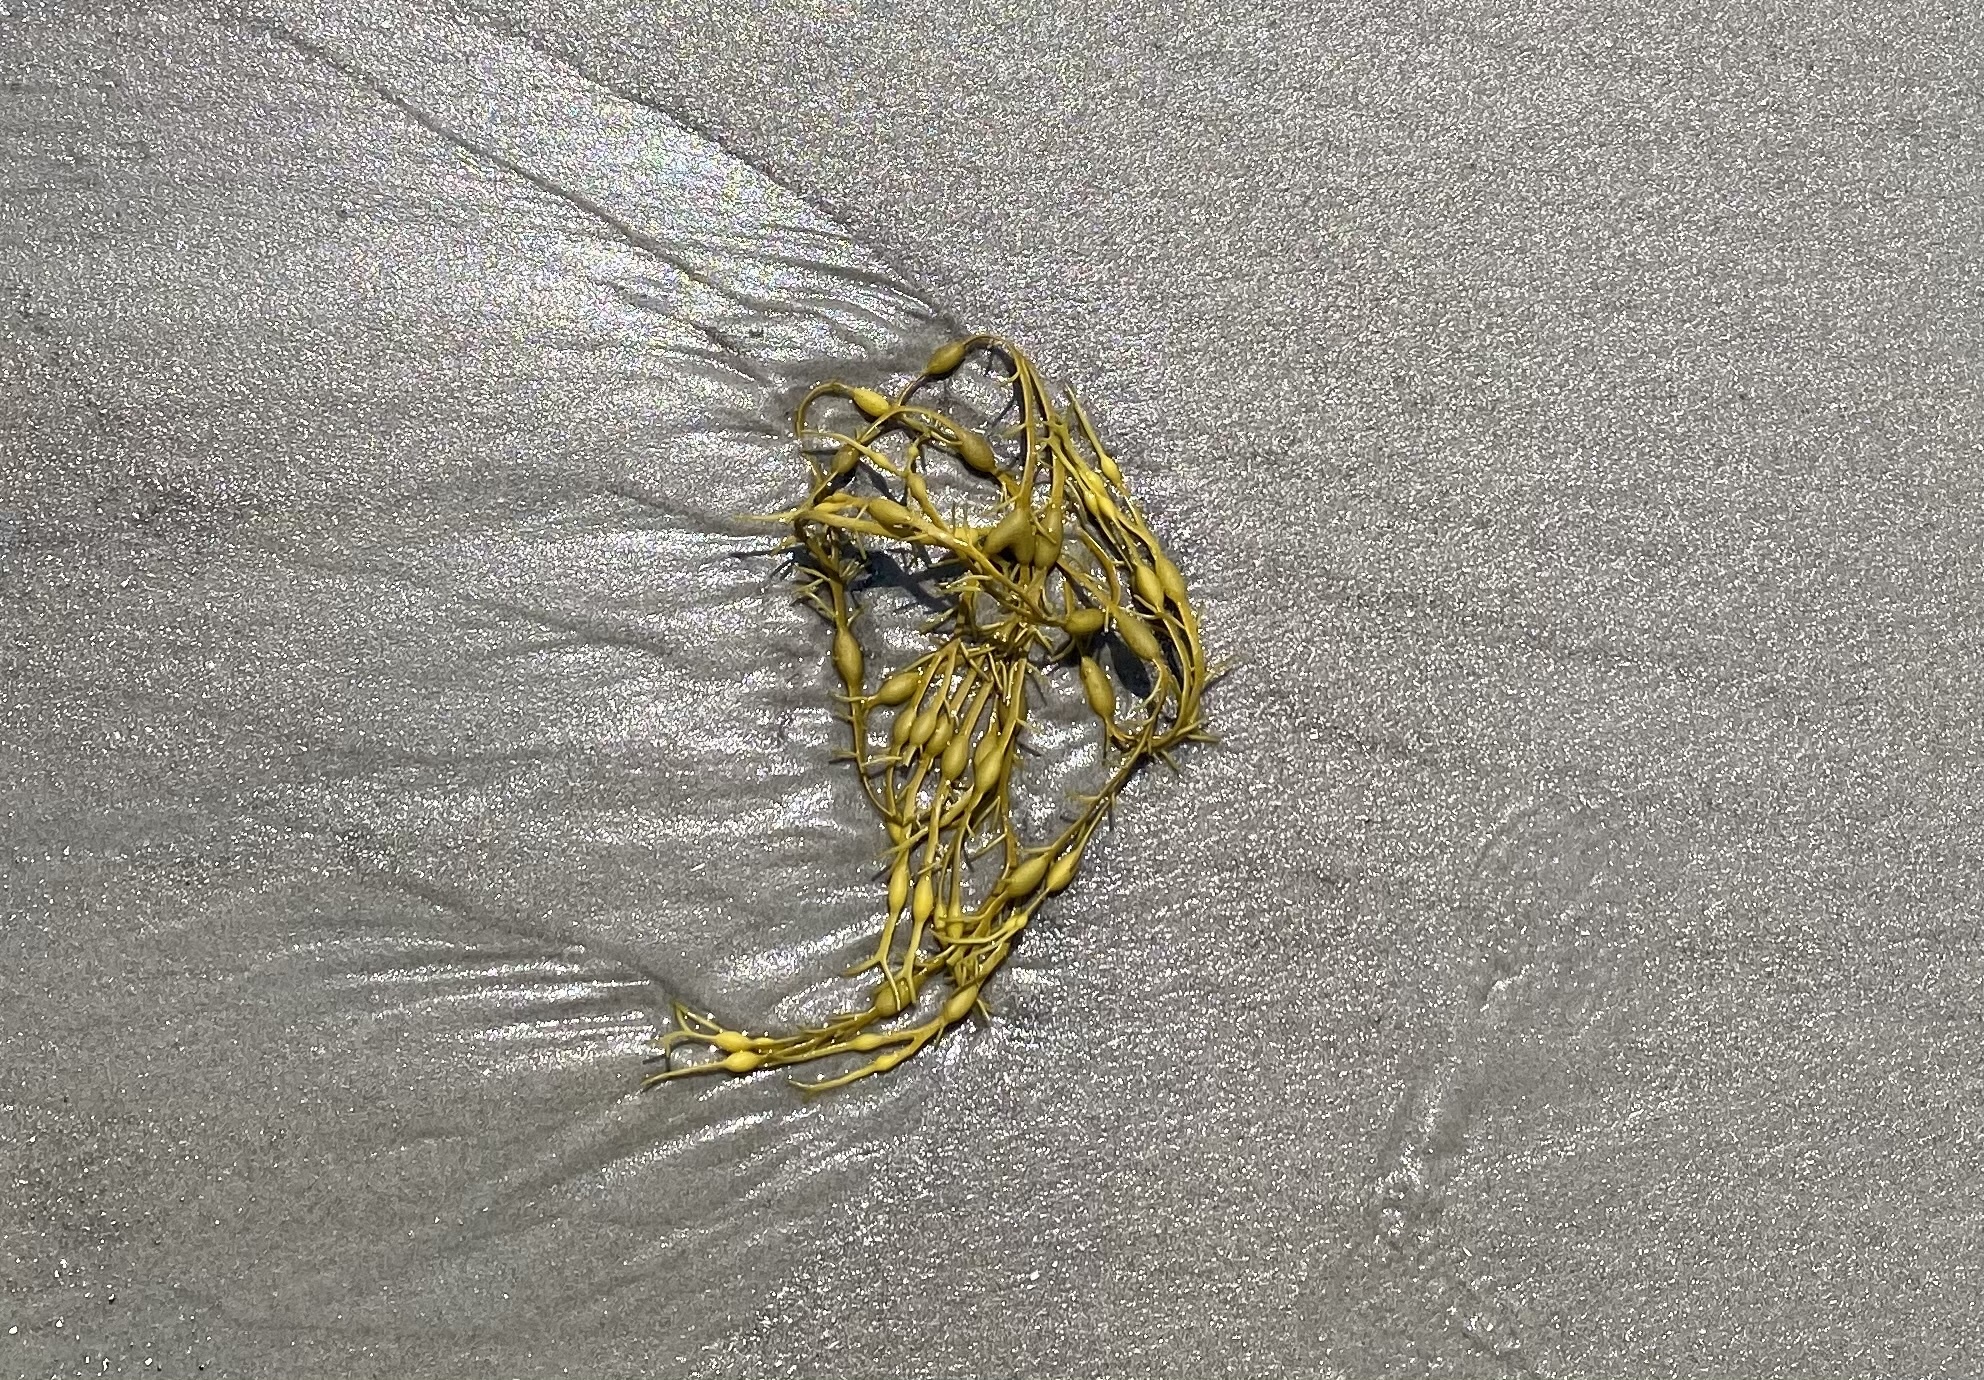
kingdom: Chromista
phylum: Ochrophyta
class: Phaeophyceae
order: Fucales
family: Fucaceae
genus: Ascophyllum
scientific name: Ascophyllum nodosum
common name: Knotted wrack
